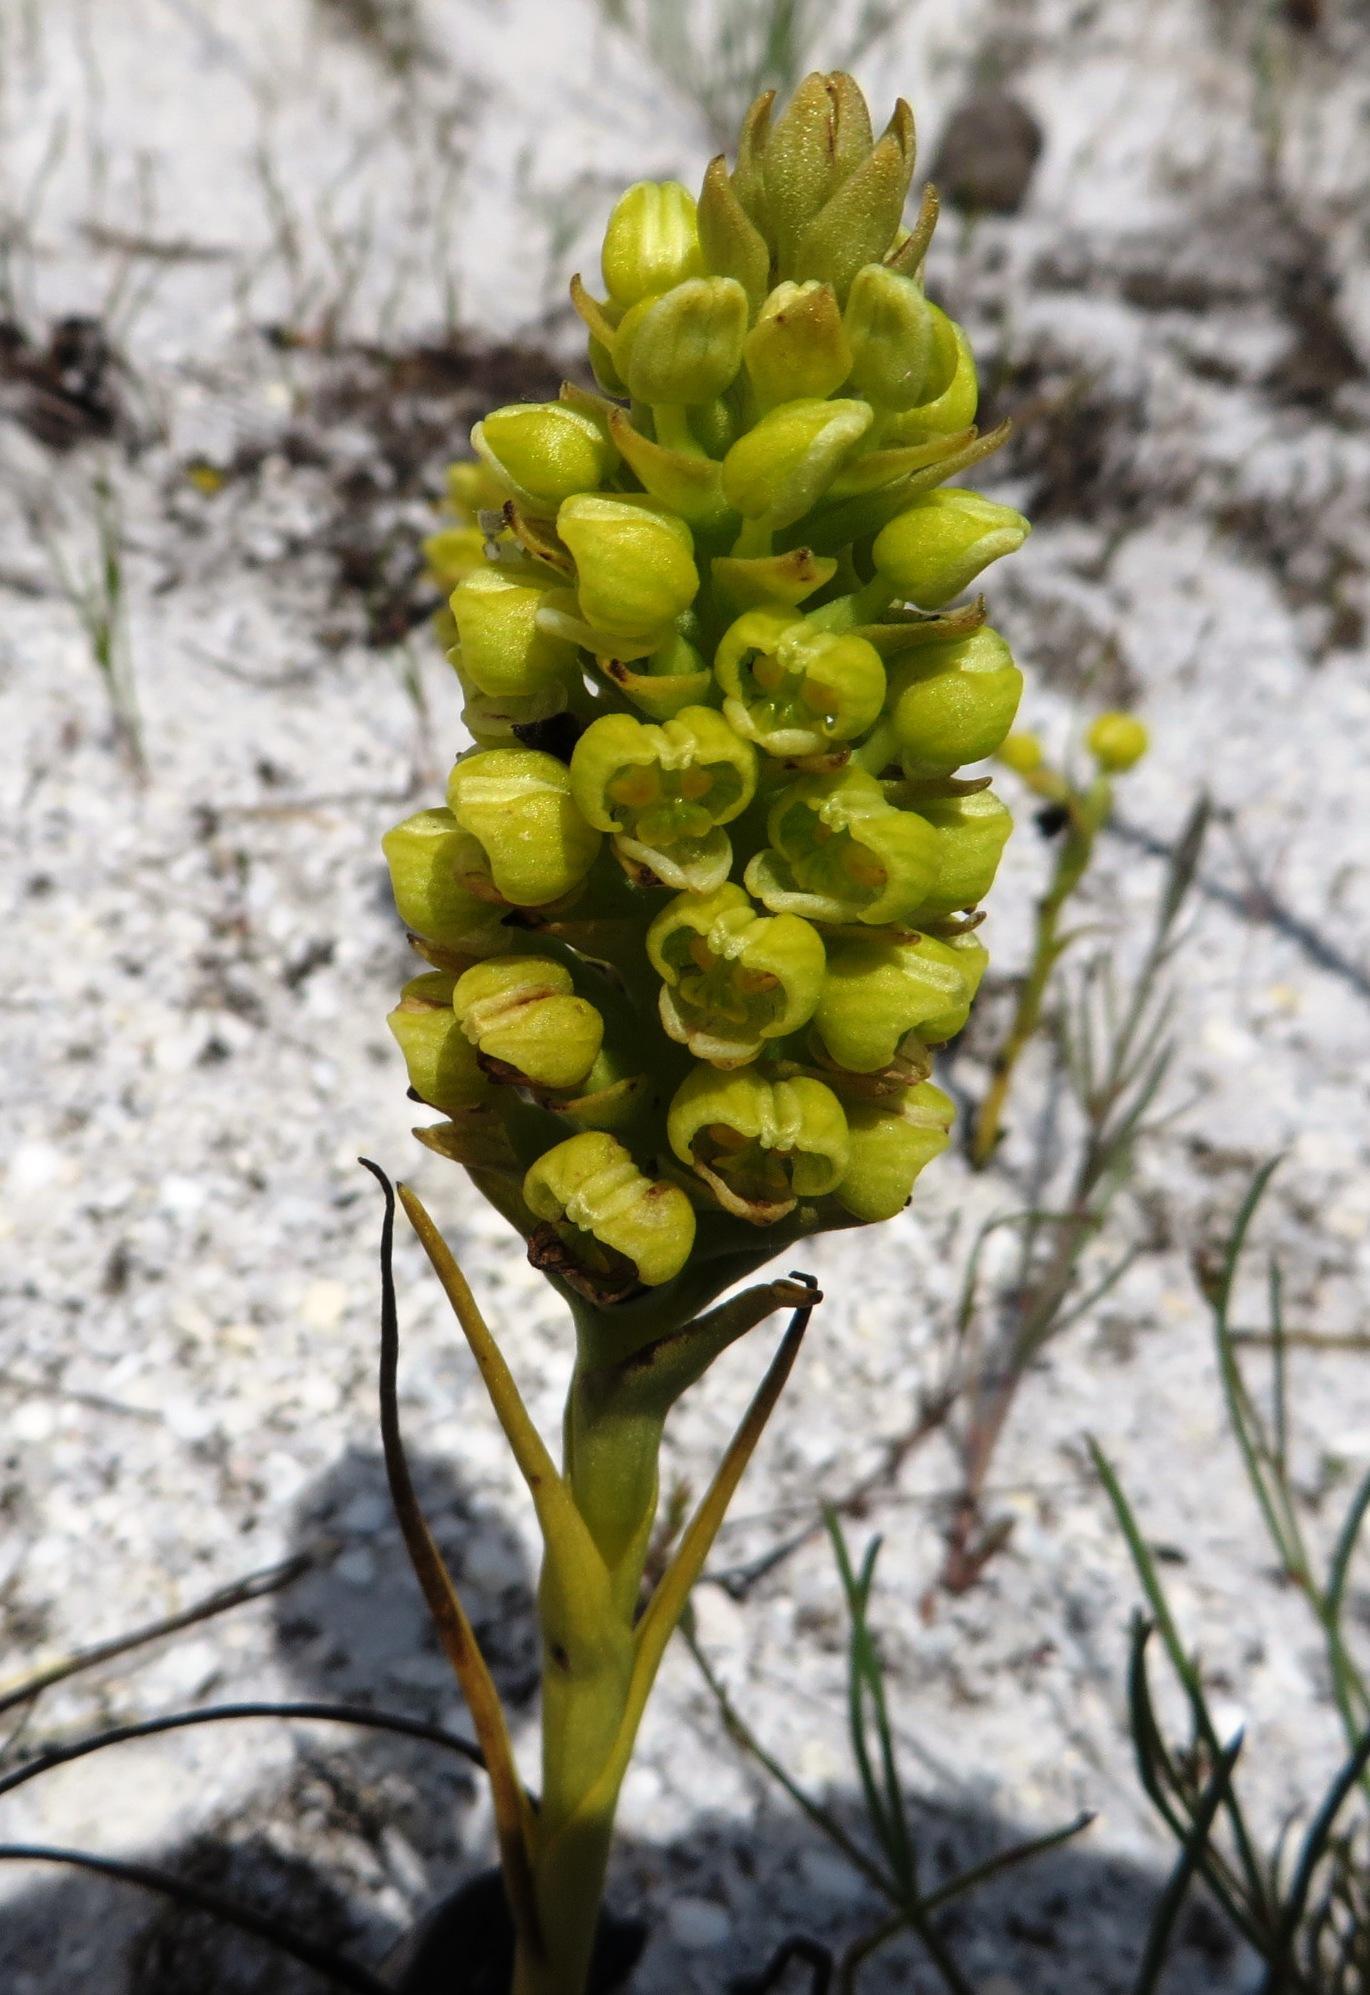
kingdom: Plantae
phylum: Tracheophyta
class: Liliopsida
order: Asparagales
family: Orchidaceae
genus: Corycium
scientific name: Corycium excisum
